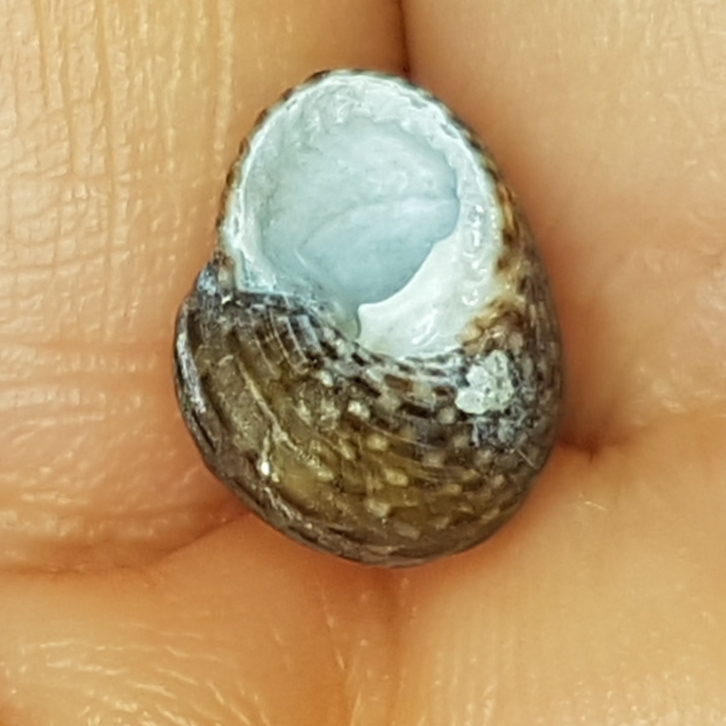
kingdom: Animalia
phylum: Mollusca
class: Gastropoda
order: Trochida
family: Trochidae
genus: Clanculus
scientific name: Clanculus jussieui
